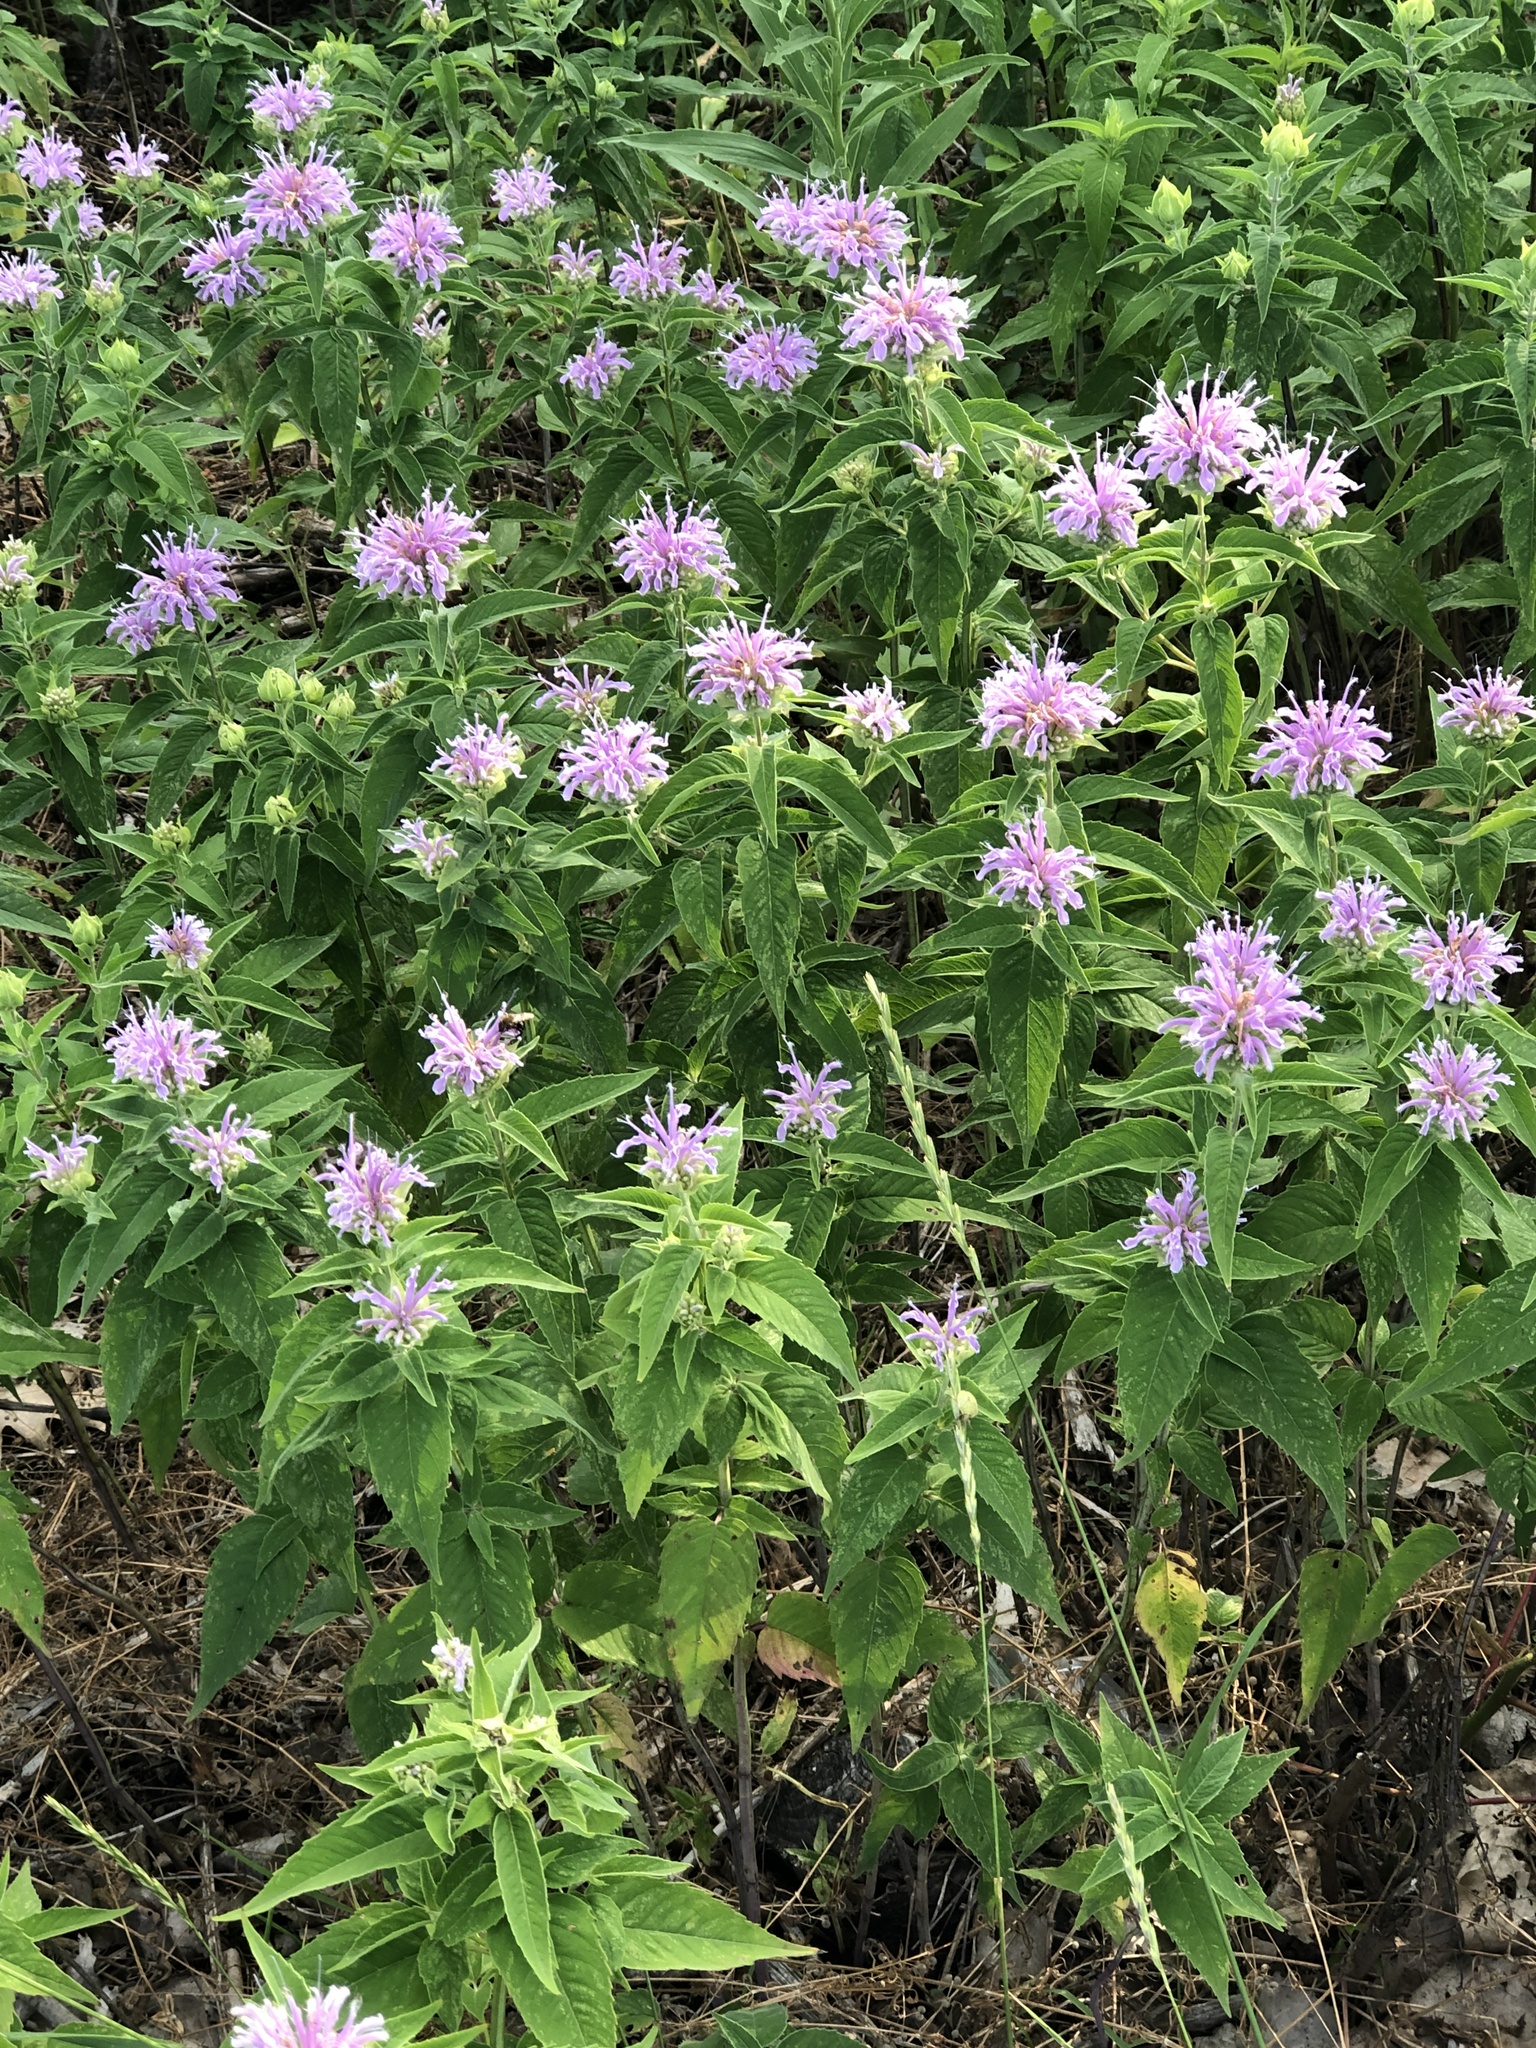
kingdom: Plantae
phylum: Tracheophyta
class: Magnoliopsida
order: Lamiales
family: Lamiaceae
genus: Monarda
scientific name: Monarda fistulosa
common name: Purple beebalm
